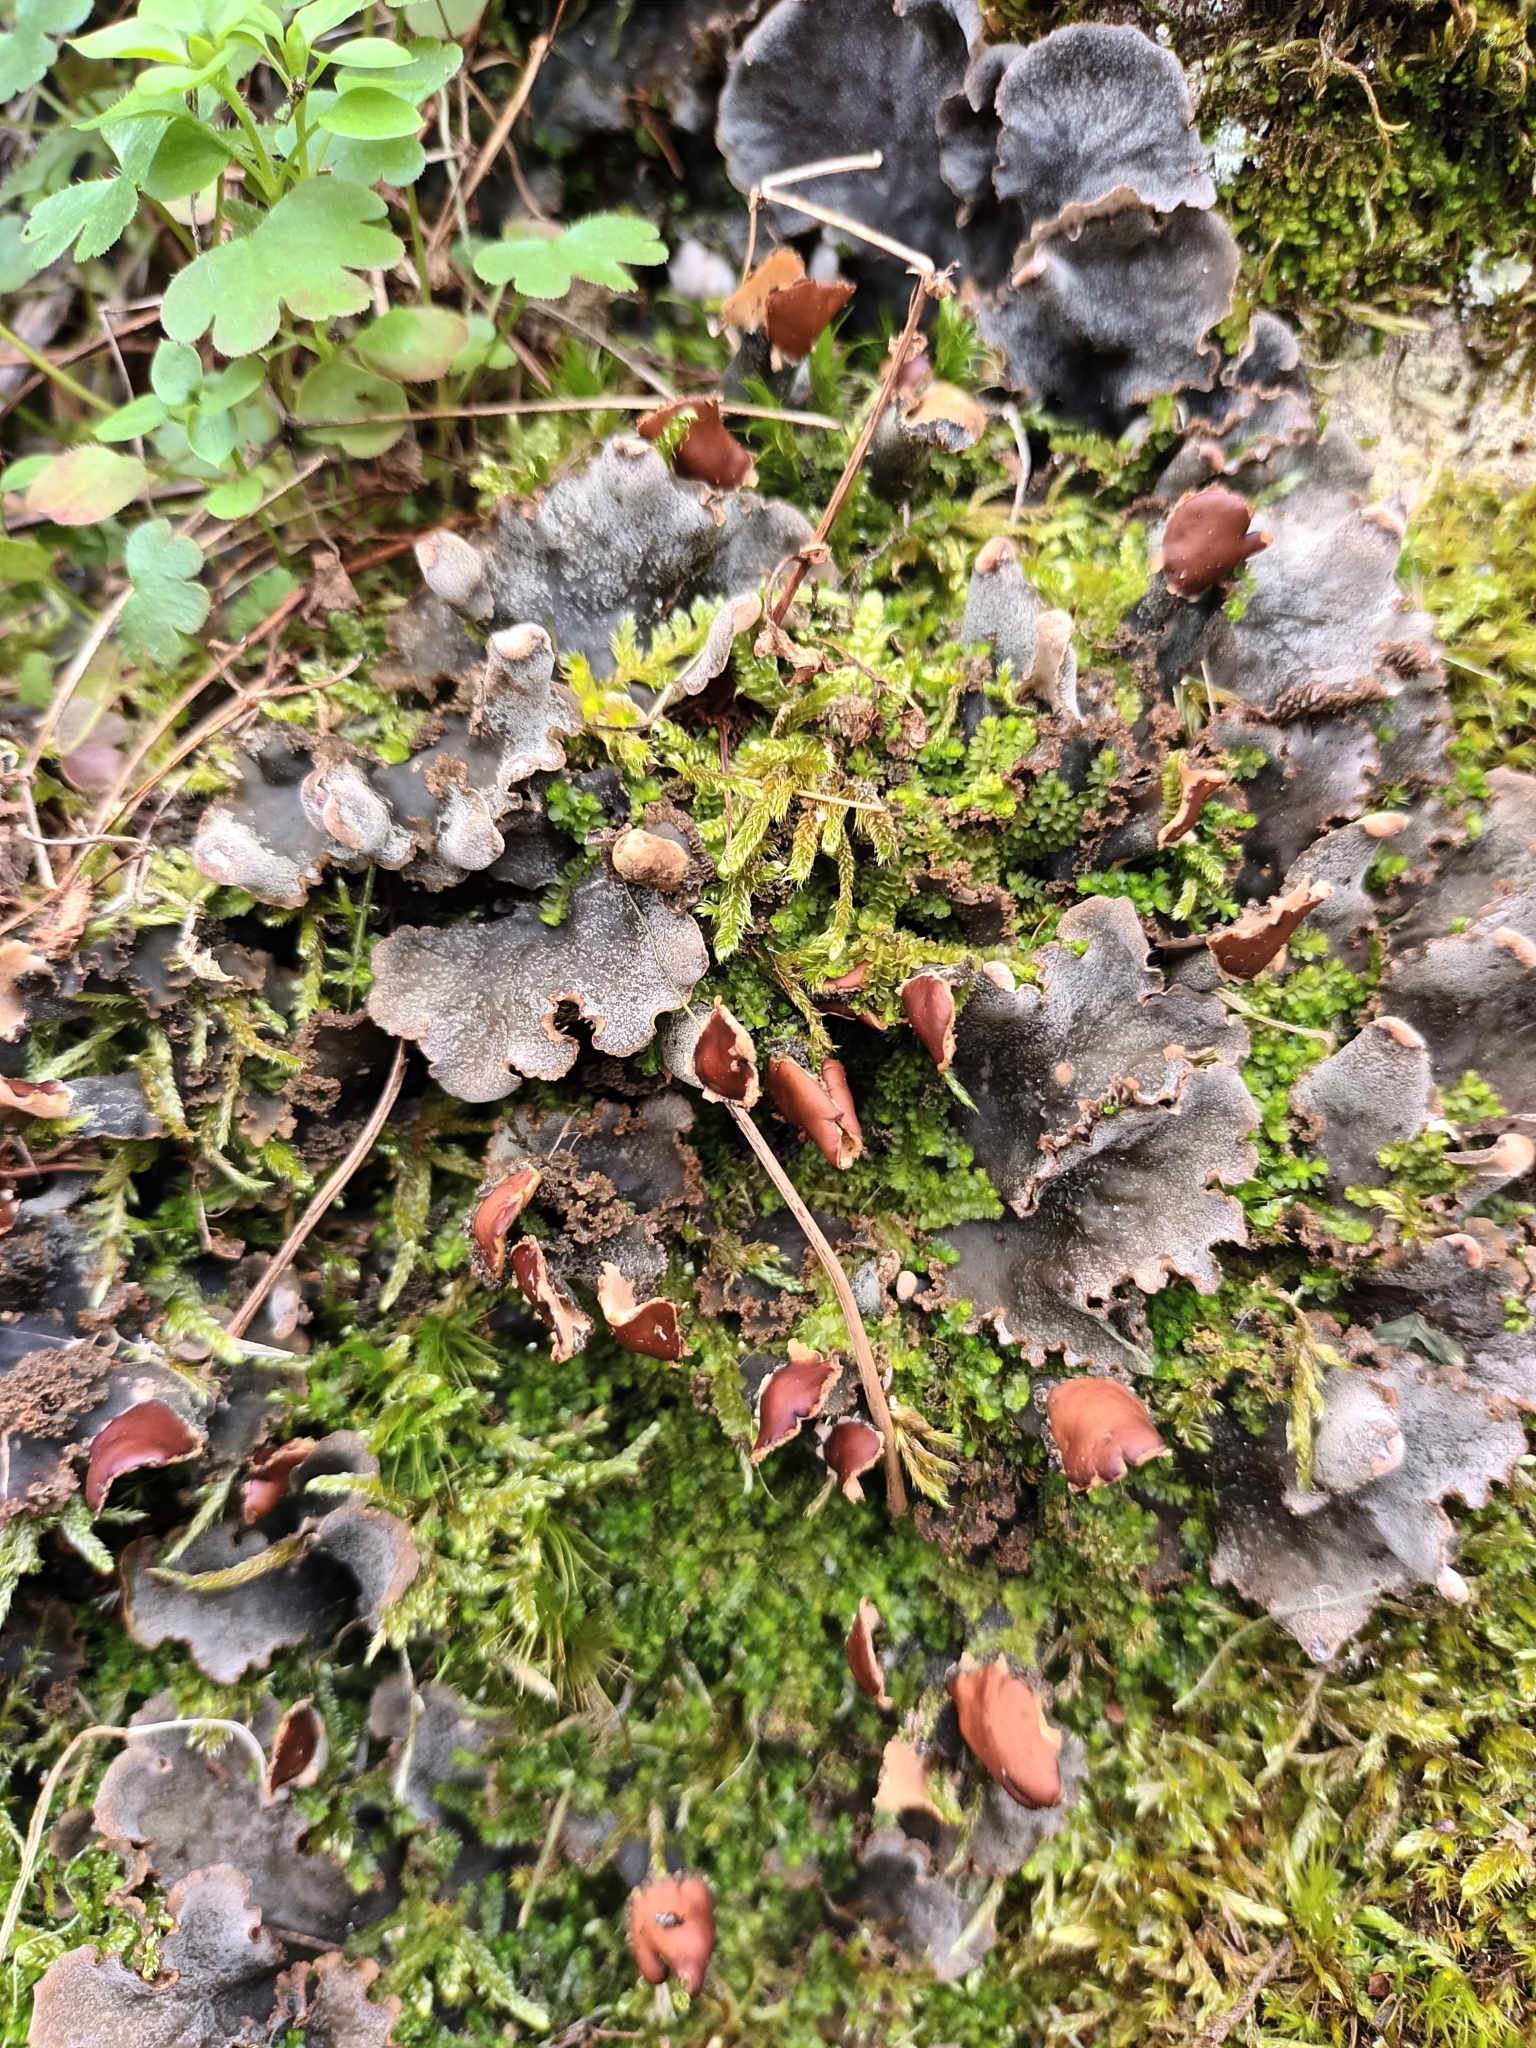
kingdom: Fungi
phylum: Ascomycota
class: Lecanoromycetes
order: Peltigerales
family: Peltigeraceae
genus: Peltigera
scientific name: Peltigera praetextata
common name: Scaly dog-lichen
